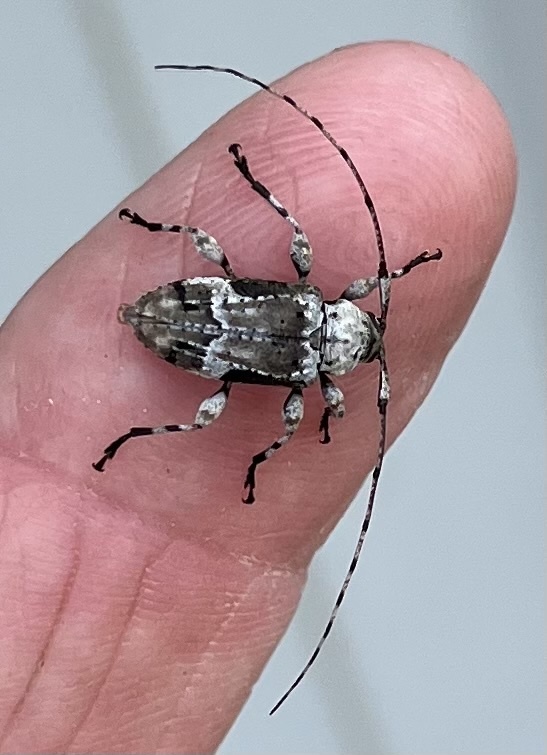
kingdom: Animalia
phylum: Arthropoda
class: Insecta
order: Coleoptera
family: Cerambycidae
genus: Leptostylopsis
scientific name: Leptostylopsis planidorsus
